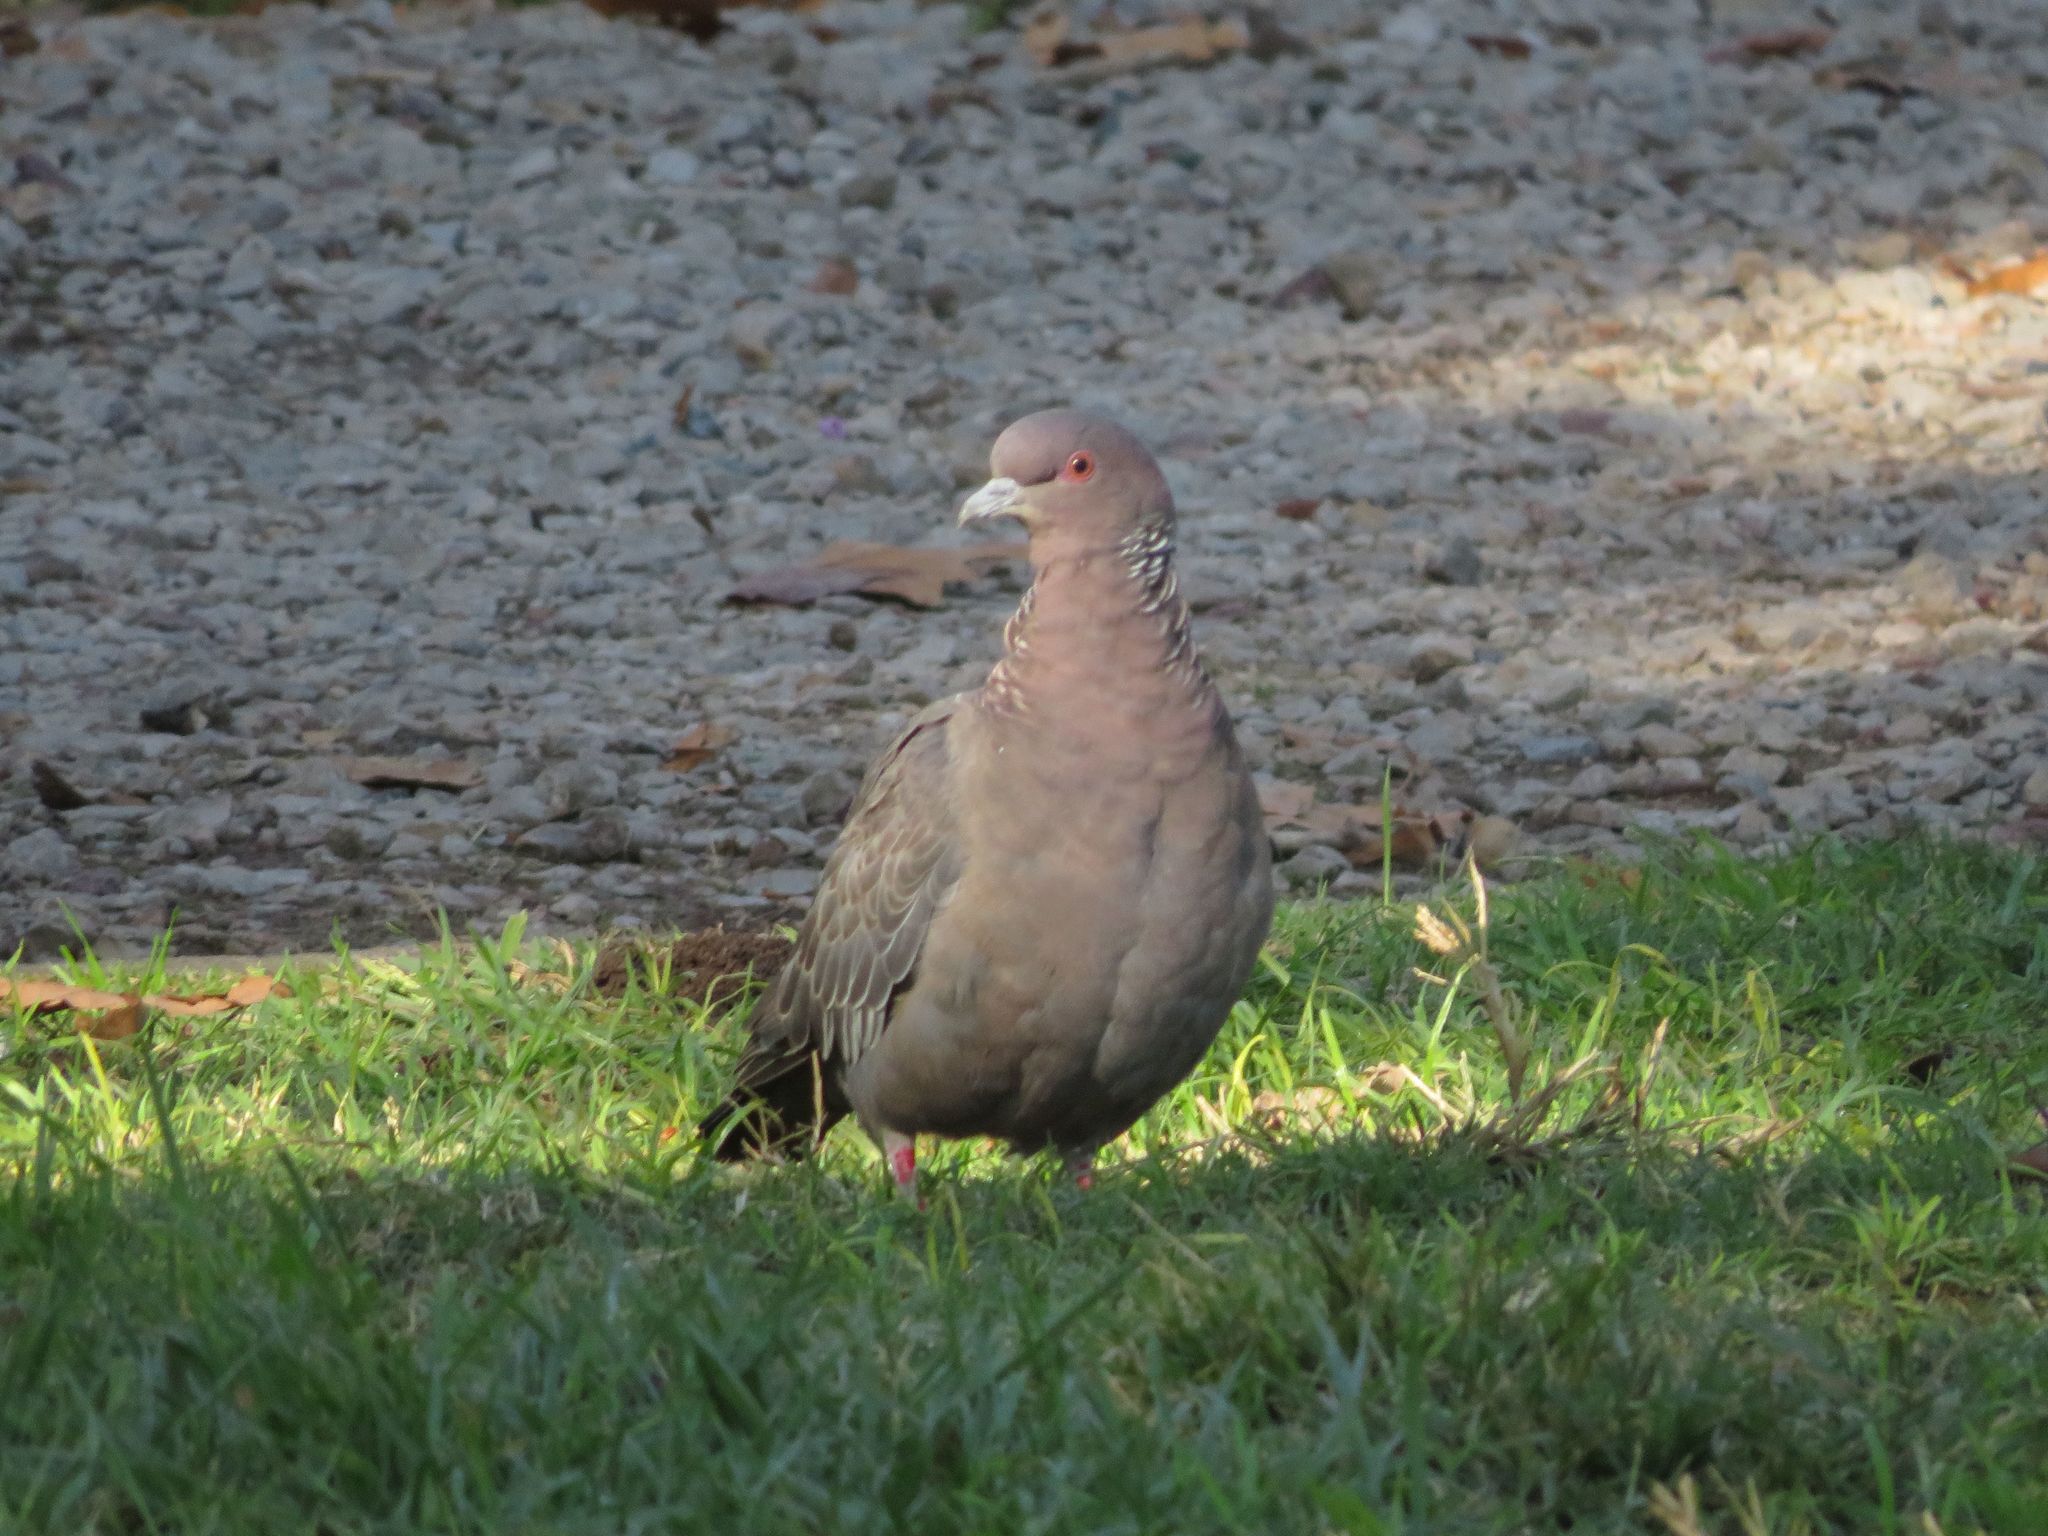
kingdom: Animalia
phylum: Chordata
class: Aves
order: Columbiformes
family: Columbidae
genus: Patagioenas
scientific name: Patagioenas picazuro
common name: Picazuro pigeon
